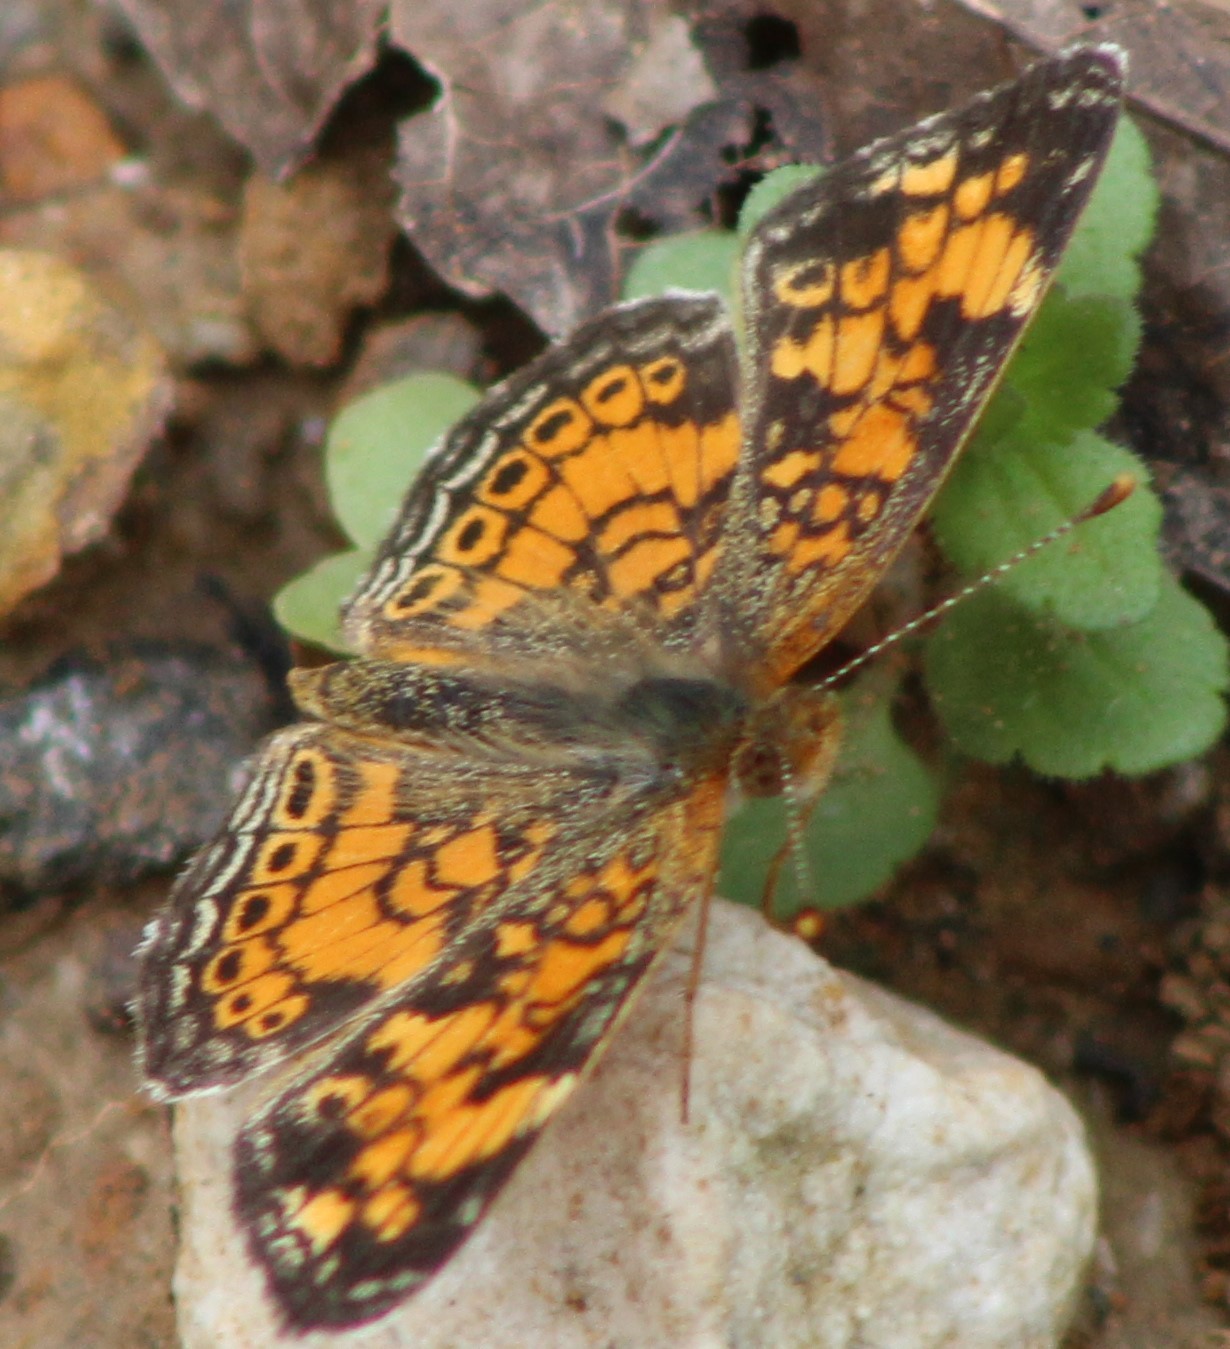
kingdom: Animalia
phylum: Arthropoda
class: Insecta
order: Lepidoptera
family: Nymphalidae
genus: Phyciodes
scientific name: Phyciodes tharos
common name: Pearl crescent
